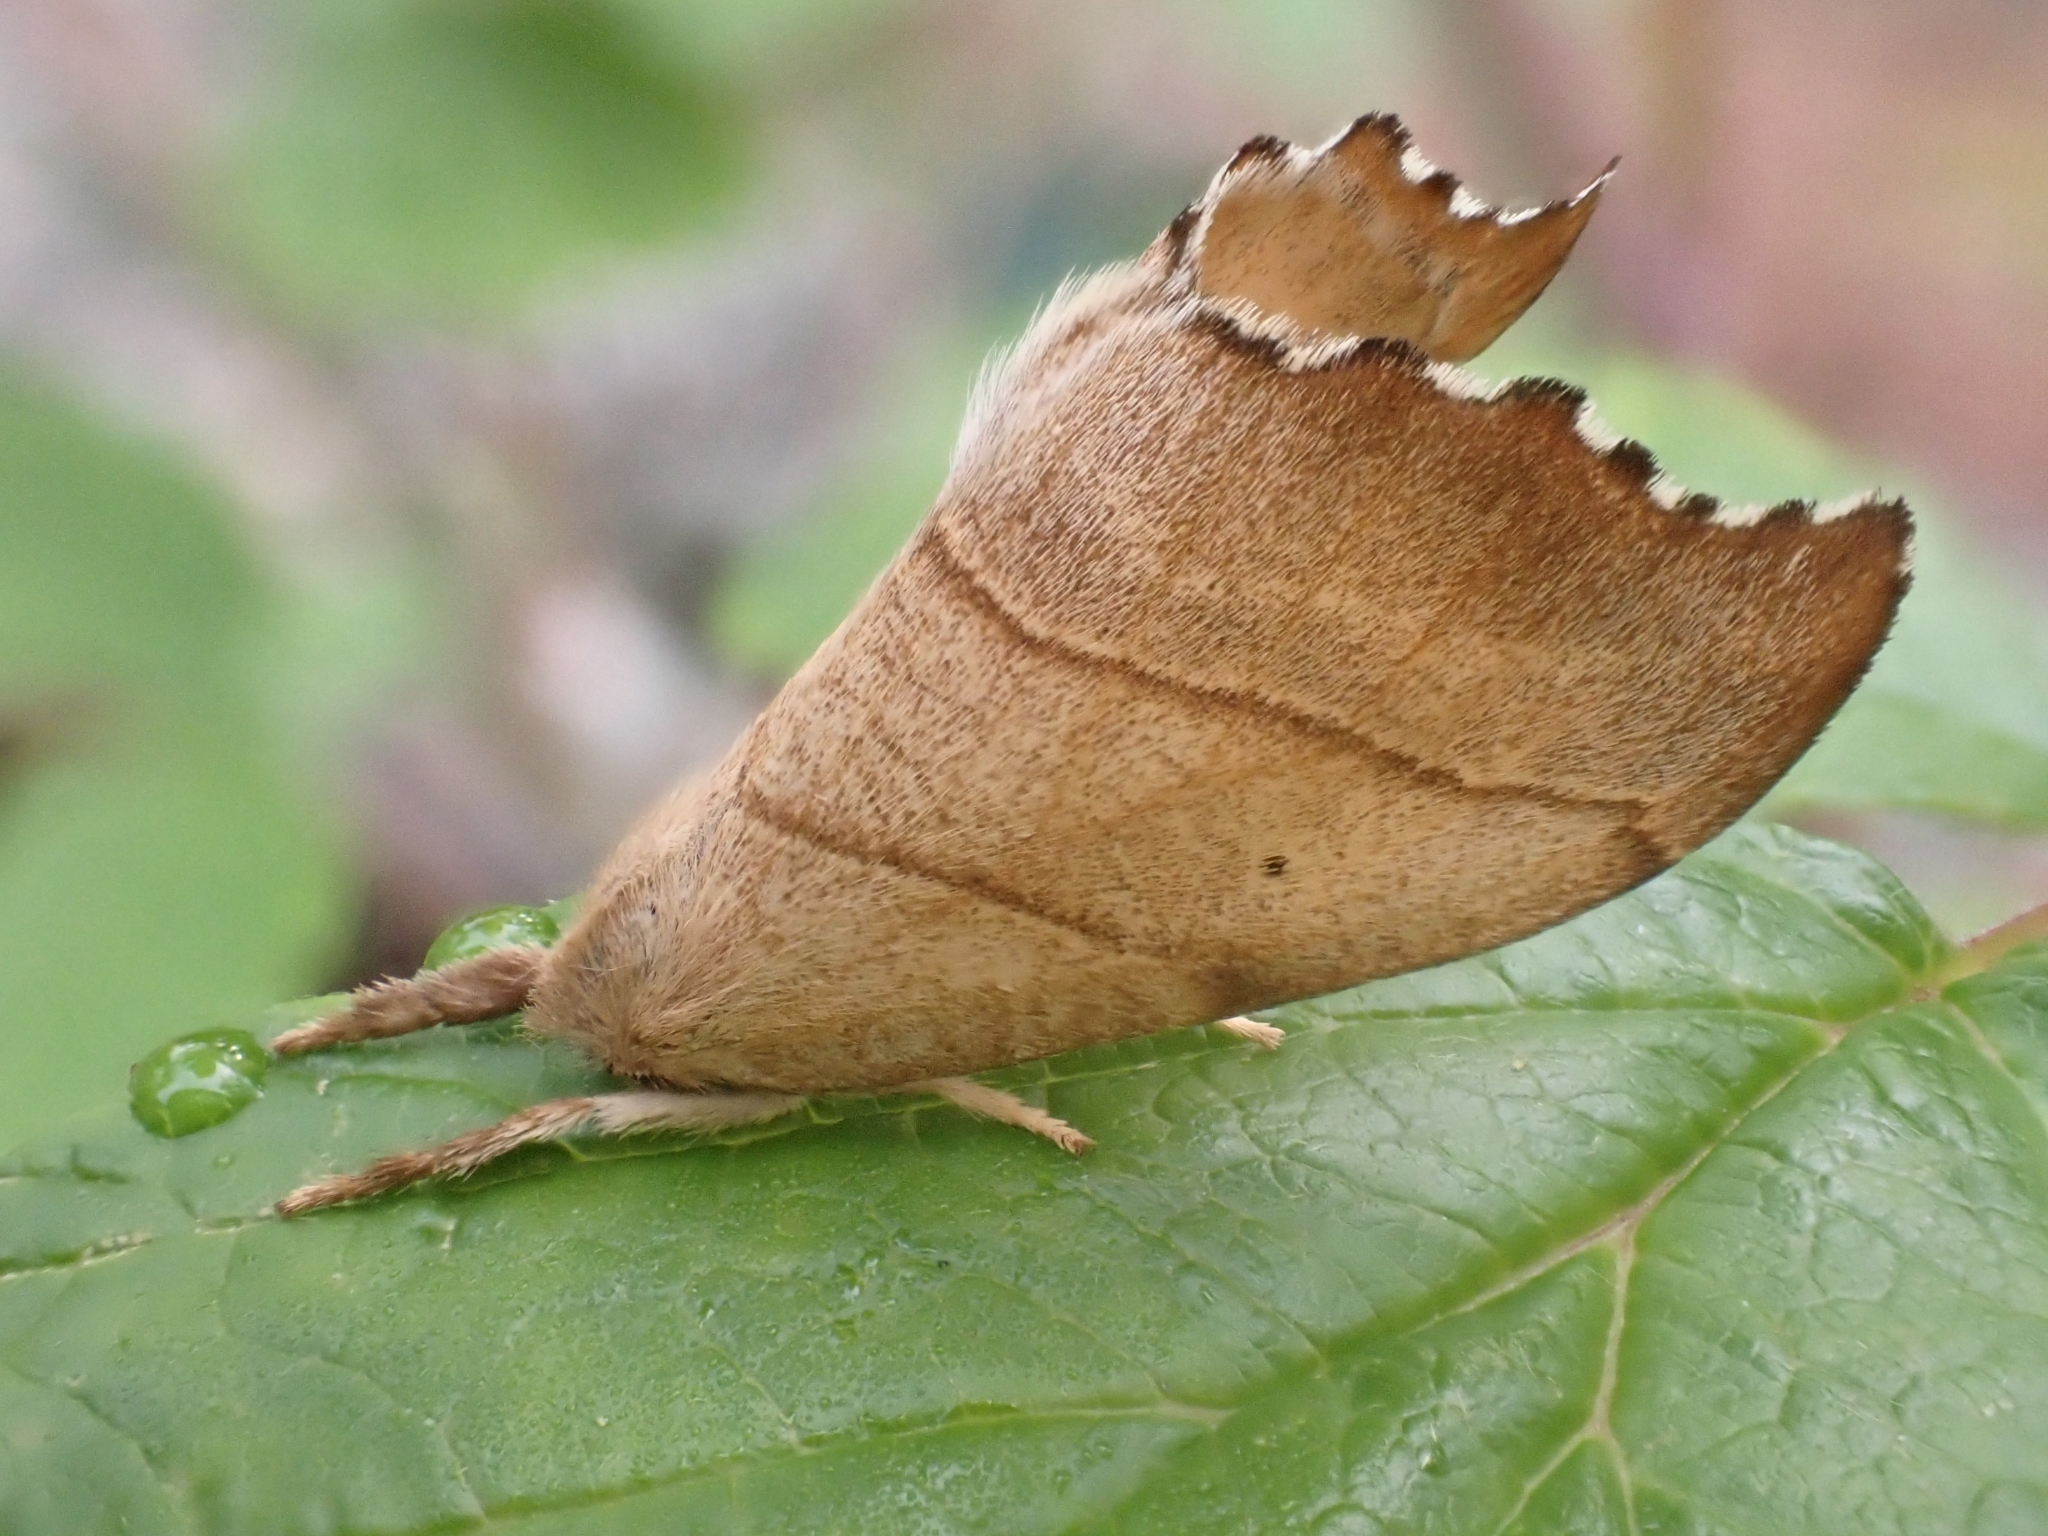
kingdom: Animalia
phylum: Arthropoda
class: Insecta
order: Lepidoptera
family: Drepanidae
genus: Falcaria
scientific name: Falcaria lacertinaria
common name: Scalloped hook-tip
